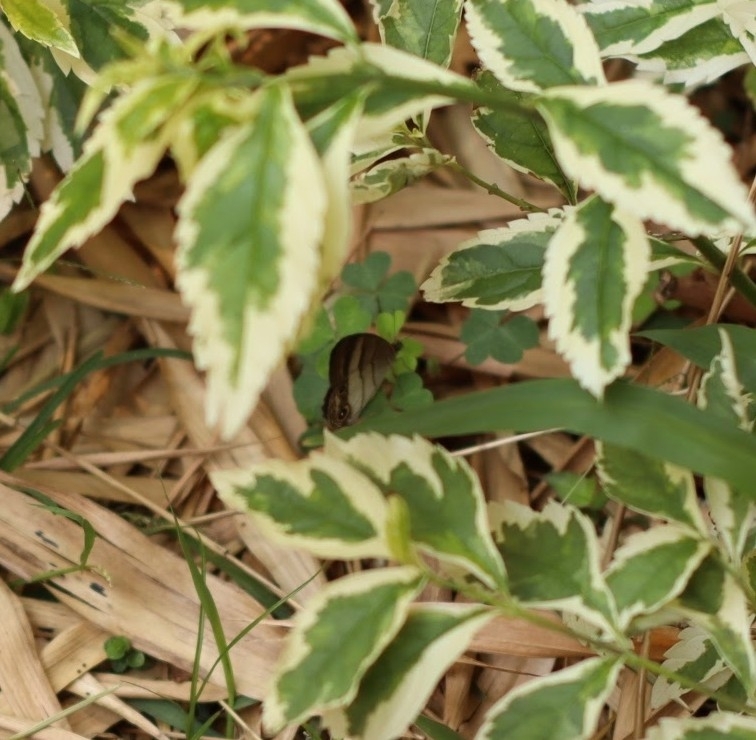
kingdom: Animalia
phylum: Arthropoda
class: Insecta
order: Lepidoptera
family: Nymphalidae
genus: Euptychoides
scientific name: Euptychoides saturnus
